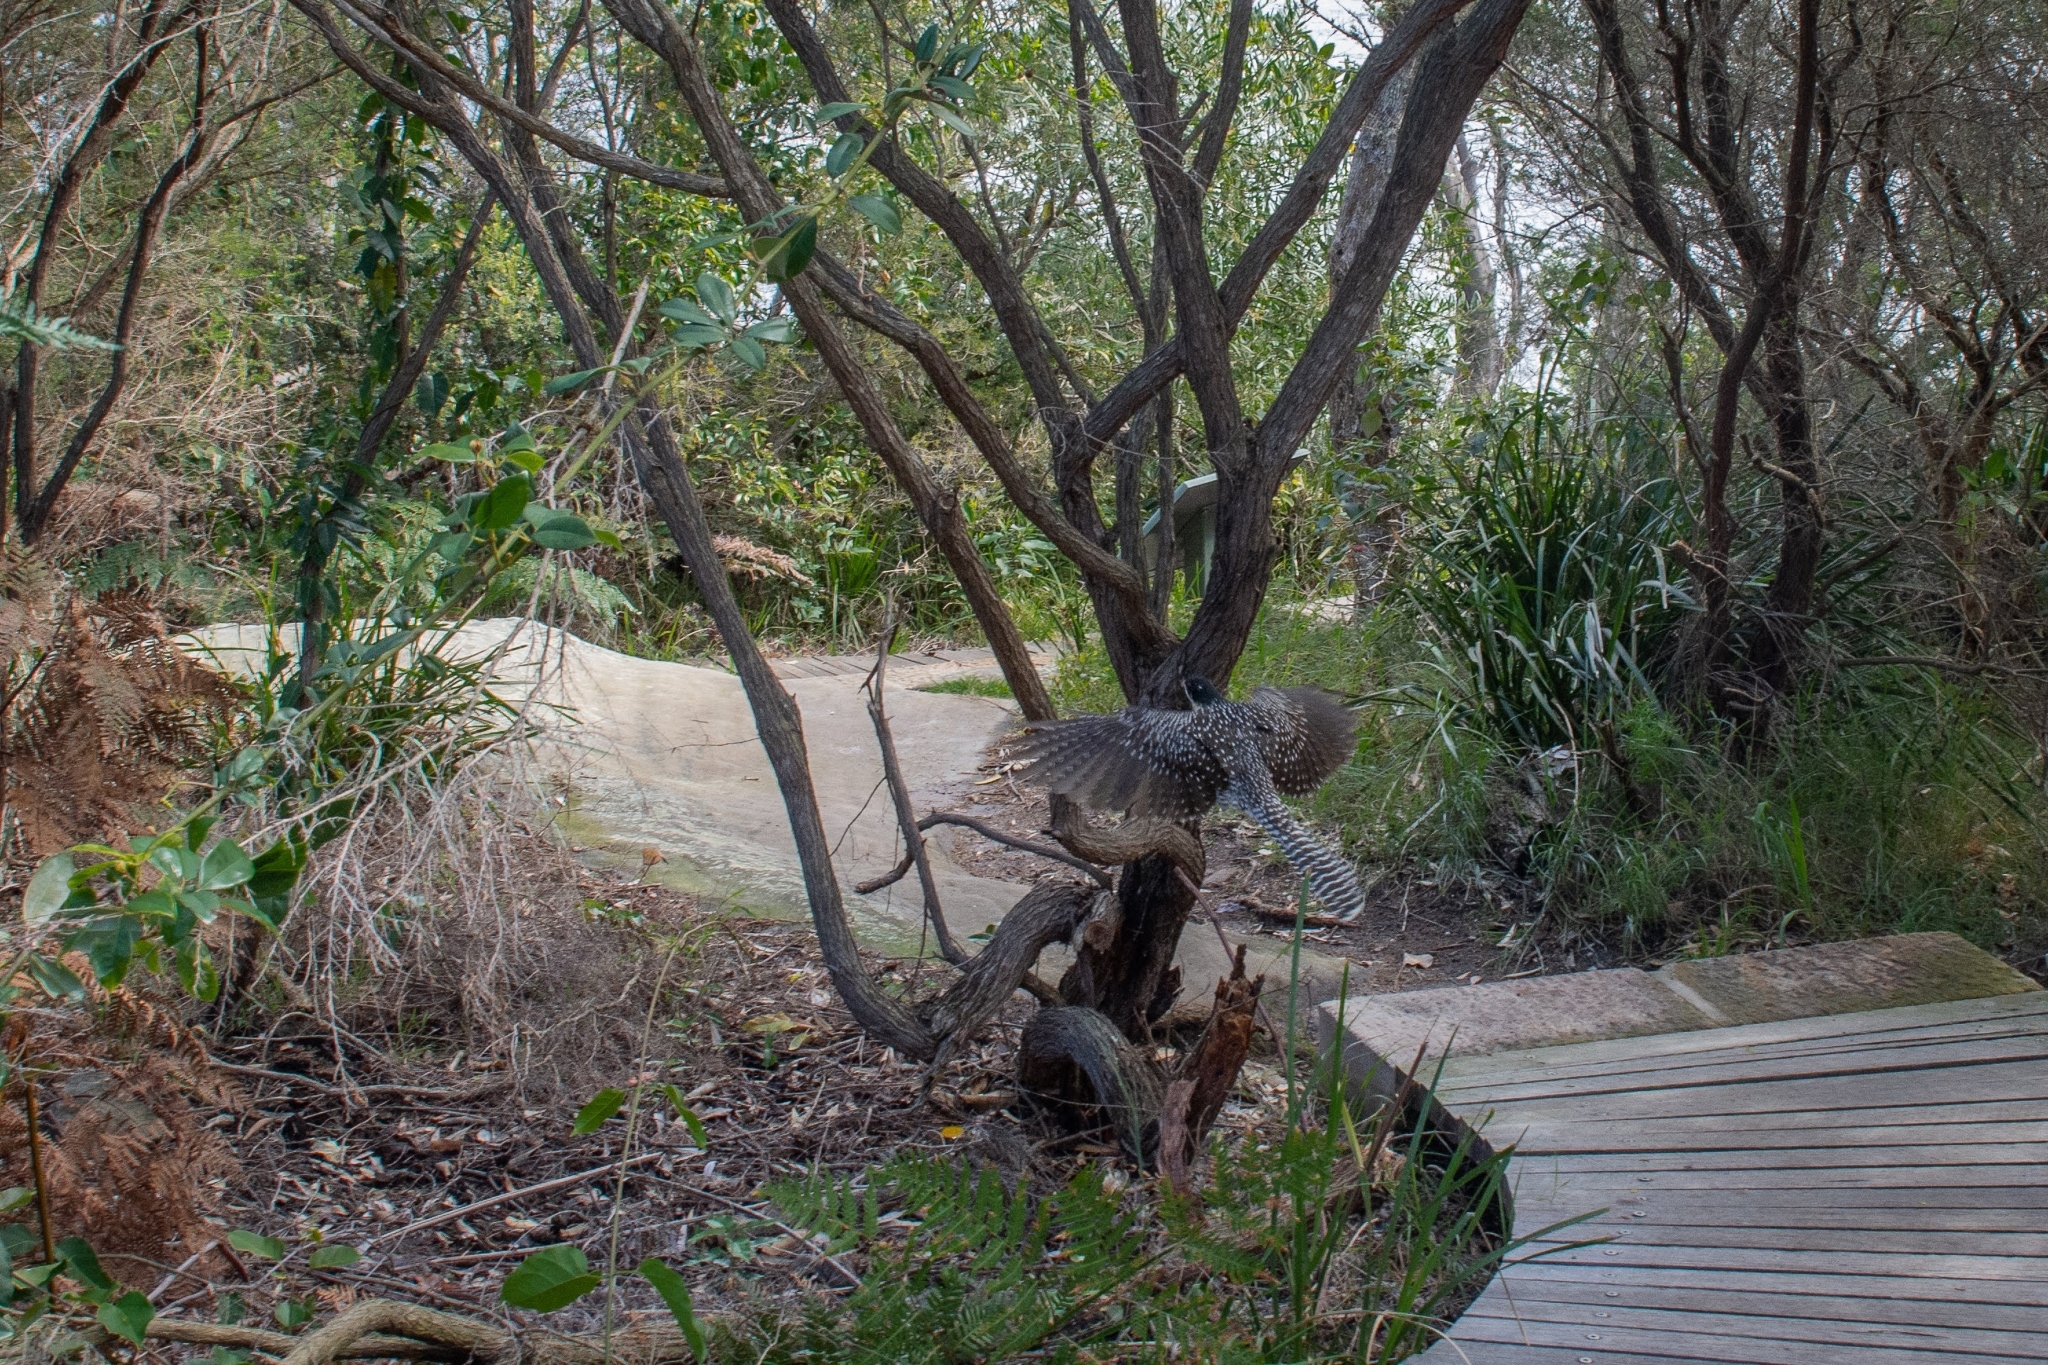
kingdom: Animalia
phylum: Chordata
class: Aves
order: Cuculiformes
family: Cuculidae
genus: Eudynamys
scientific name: Eudynamys orientalis
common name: Pacific koel
